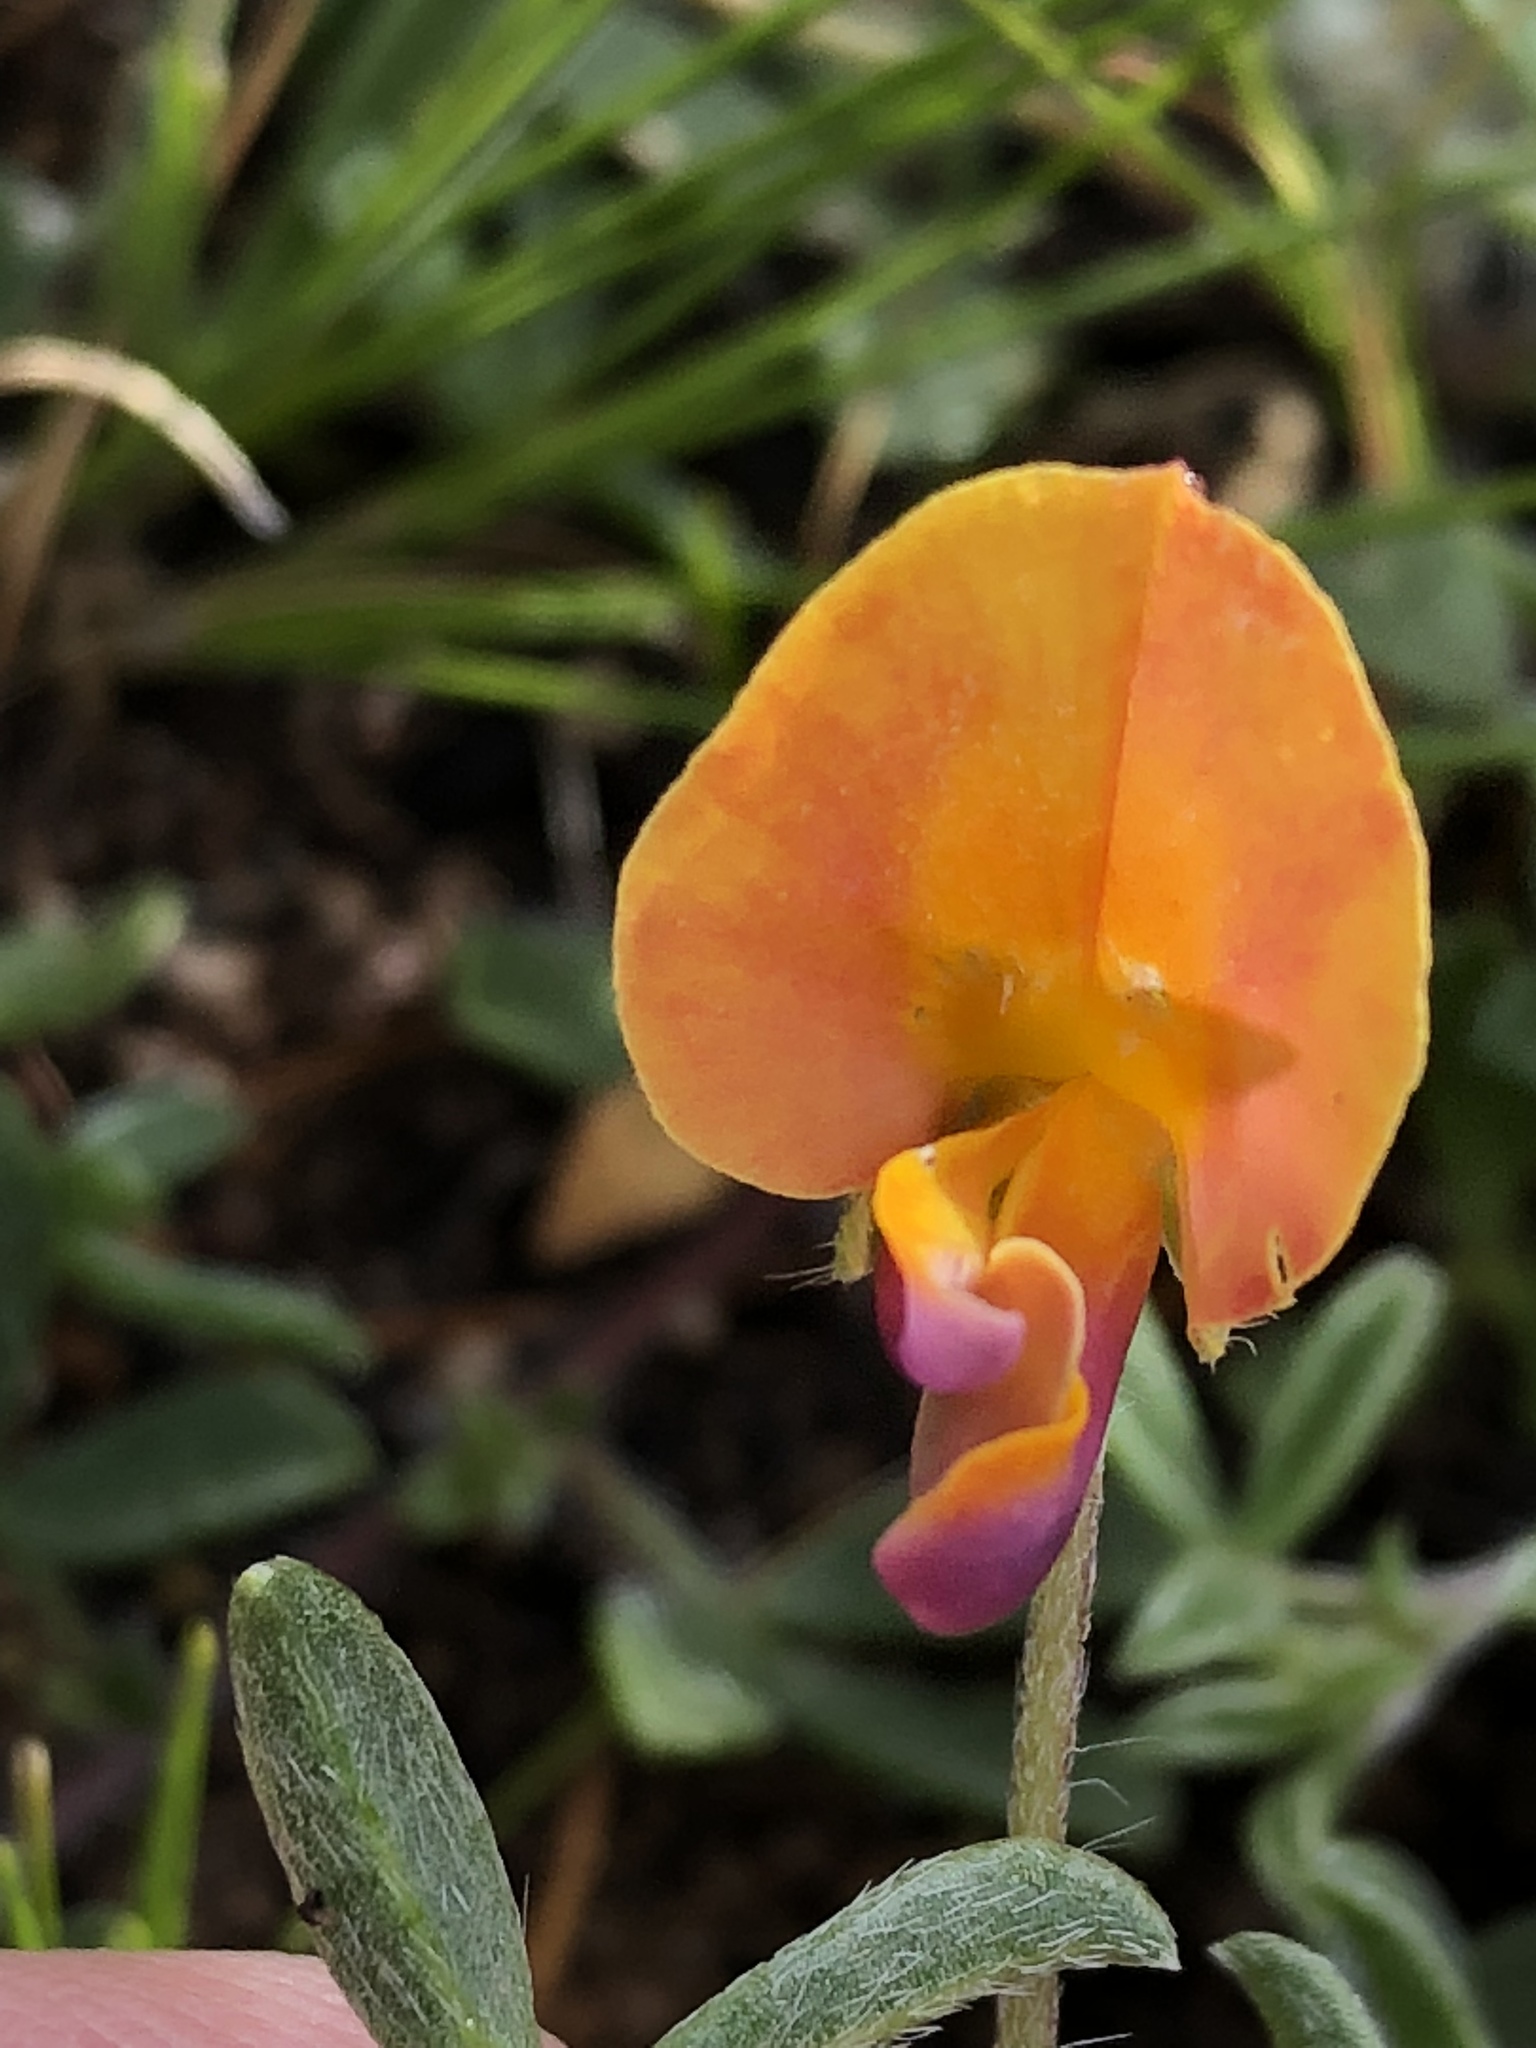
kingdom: Plantae
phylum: Tracheophyta
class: Magnoliopsida
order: Fabales
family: Fabaceae
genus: Lotononis
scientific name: Lotononis pungens
